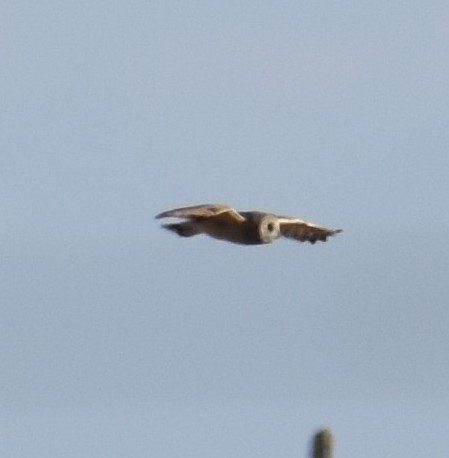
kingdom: Animalia
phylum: Chordata
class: Aves
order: Strigiformes
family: Strigidae
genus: Asio
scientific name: Asio capensis
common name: Marsh owl
